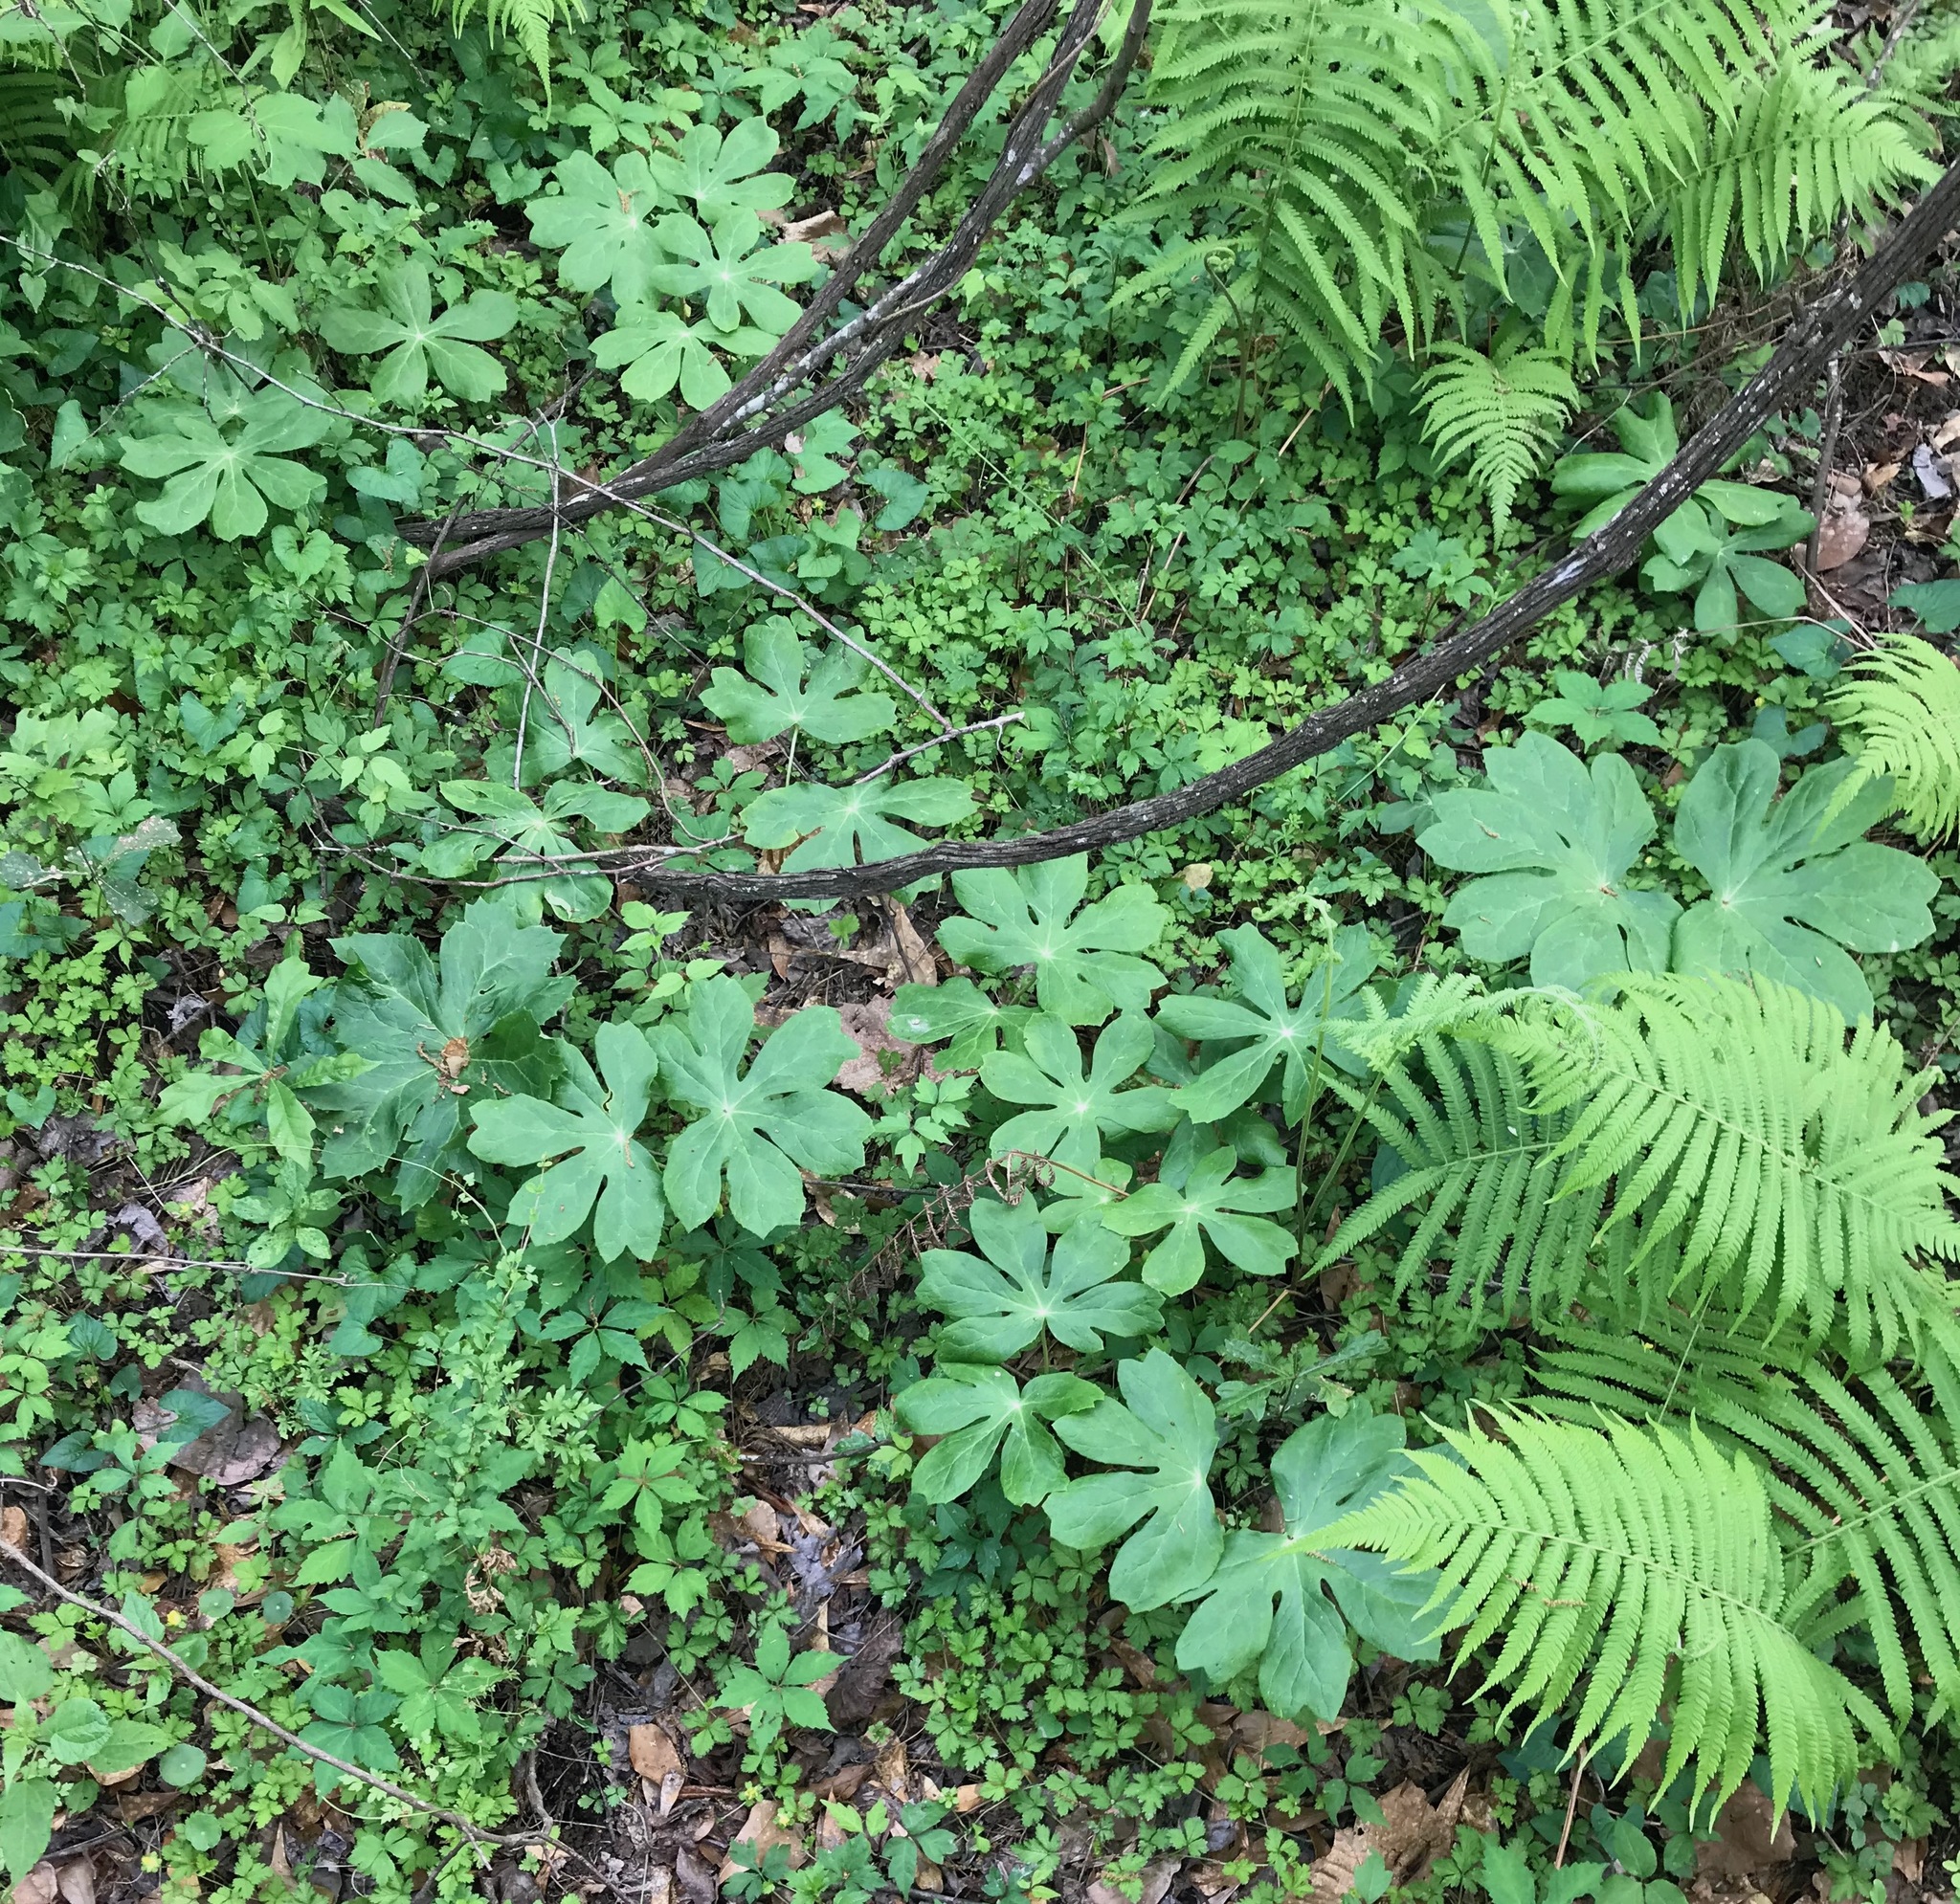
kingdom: Plantae
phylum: Tracheophyta
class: Magnoliopsida
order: Ranunculales
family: Berberidaceae
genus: Podophyllum
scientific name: Podophyllum peltatum
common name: Wild mandrake
